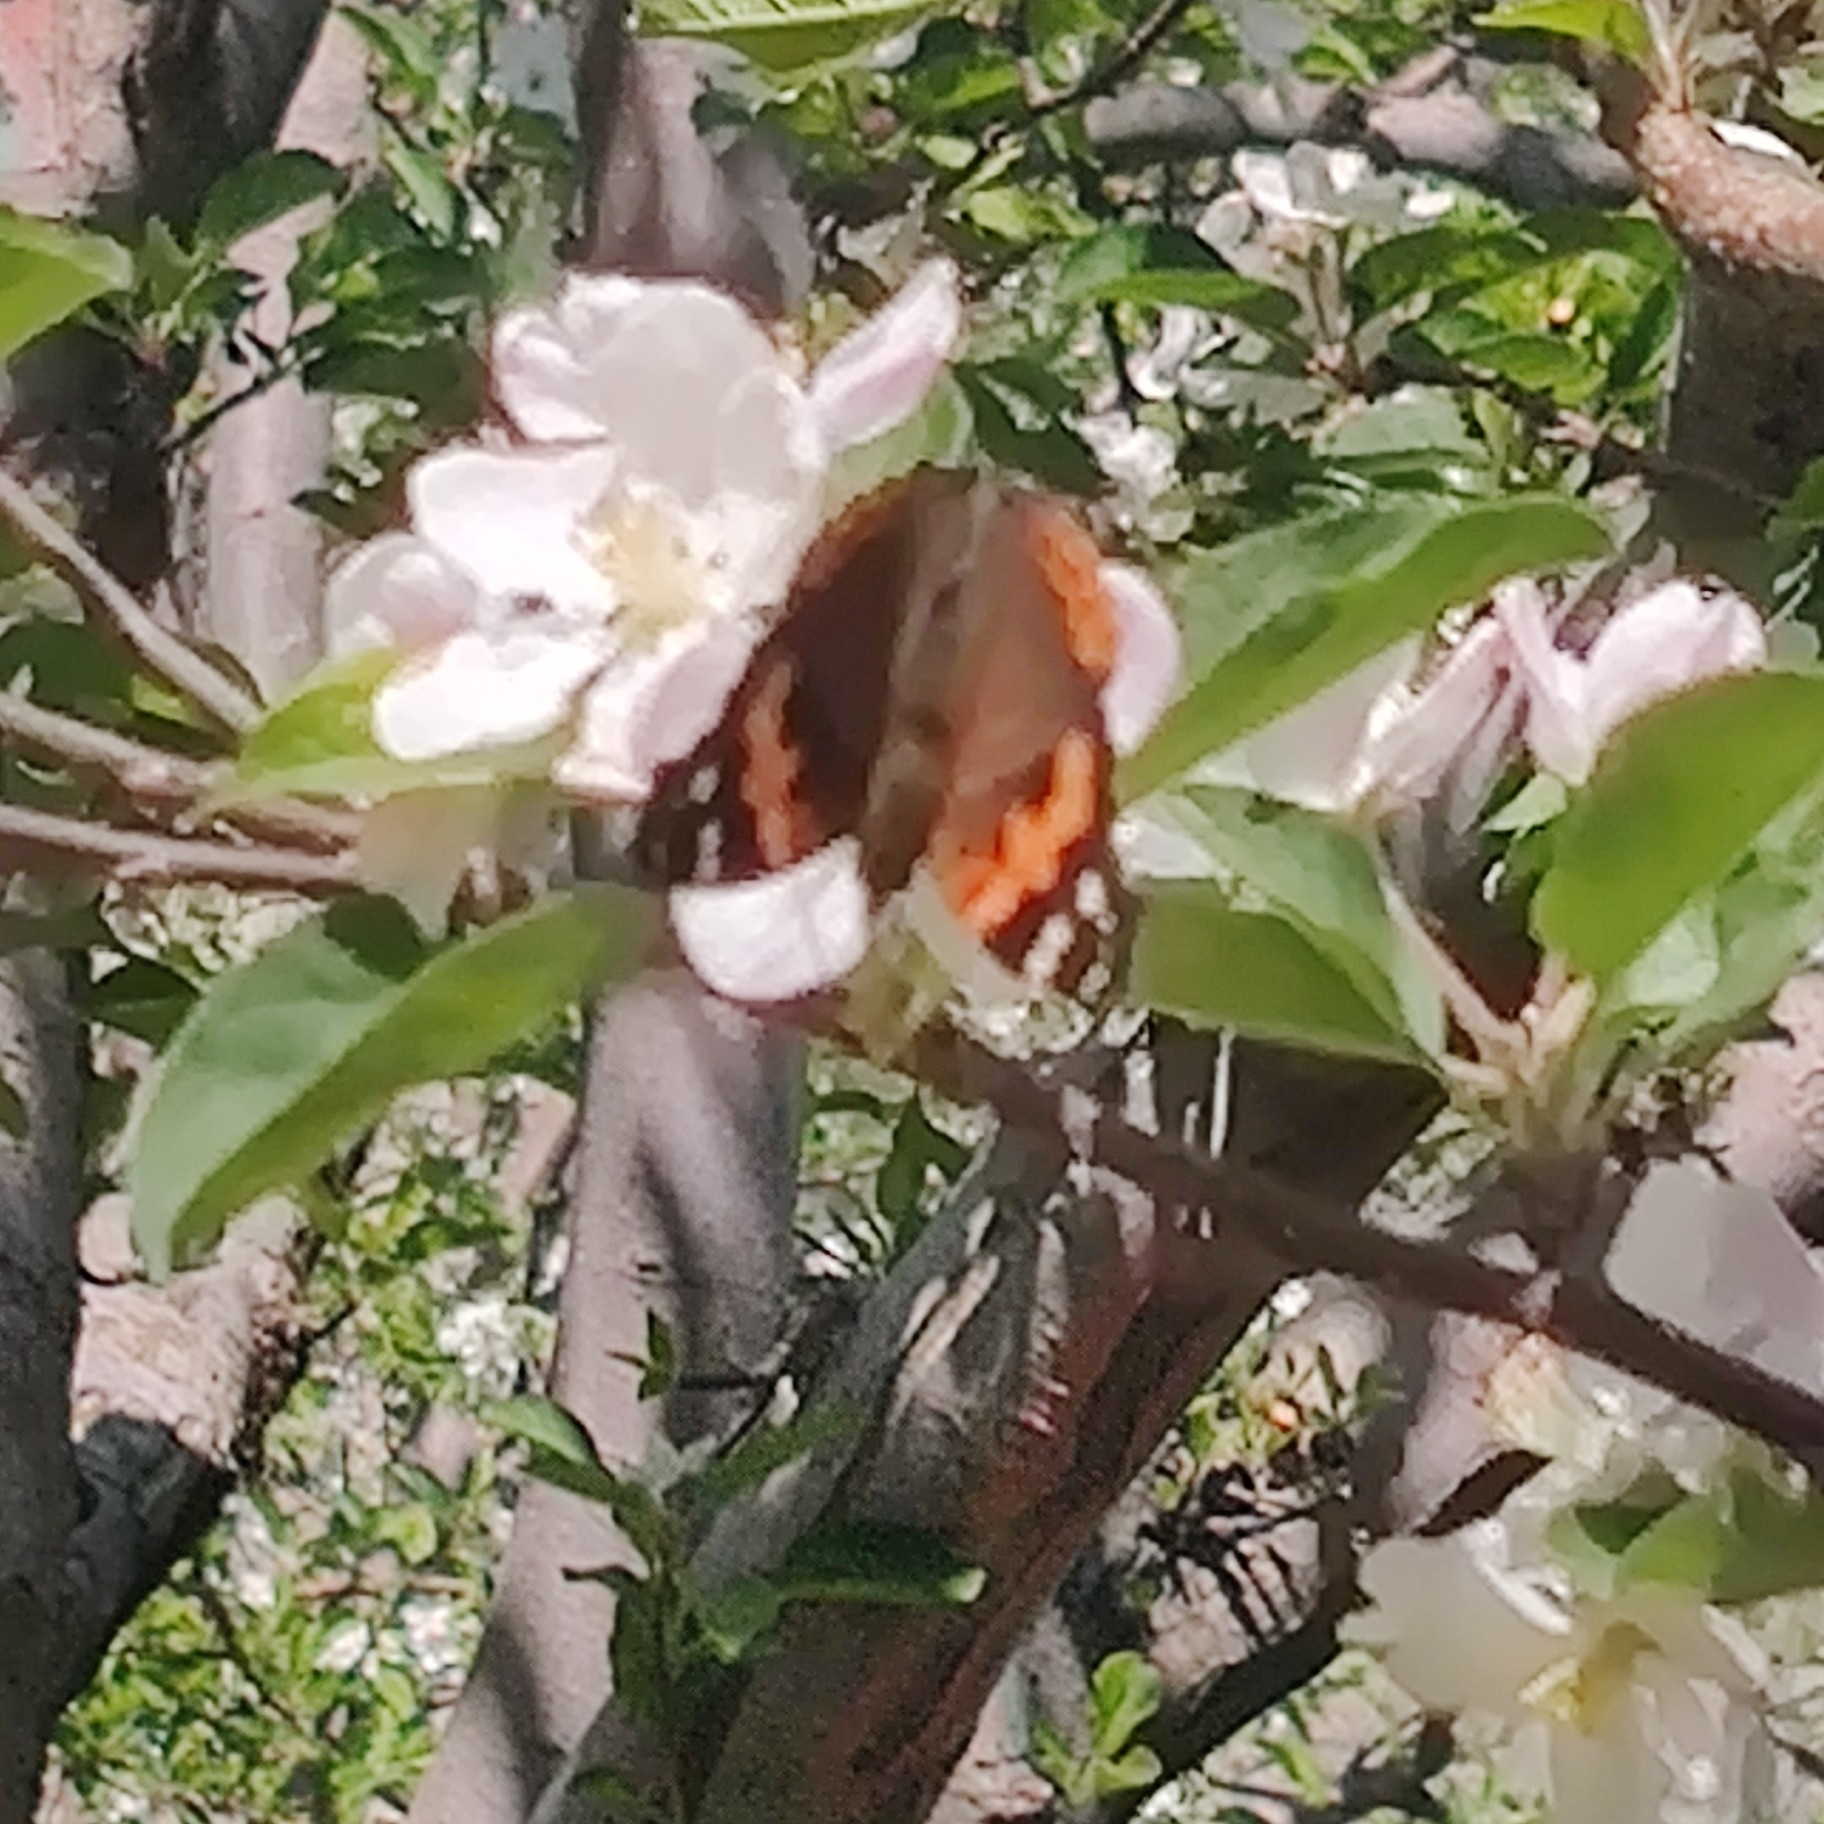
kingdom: Animalia
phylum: Arthropoda
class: Insecta
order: Lepidoptera
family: Nymphalidae
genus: Vanessa
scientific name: Vanessa indica
